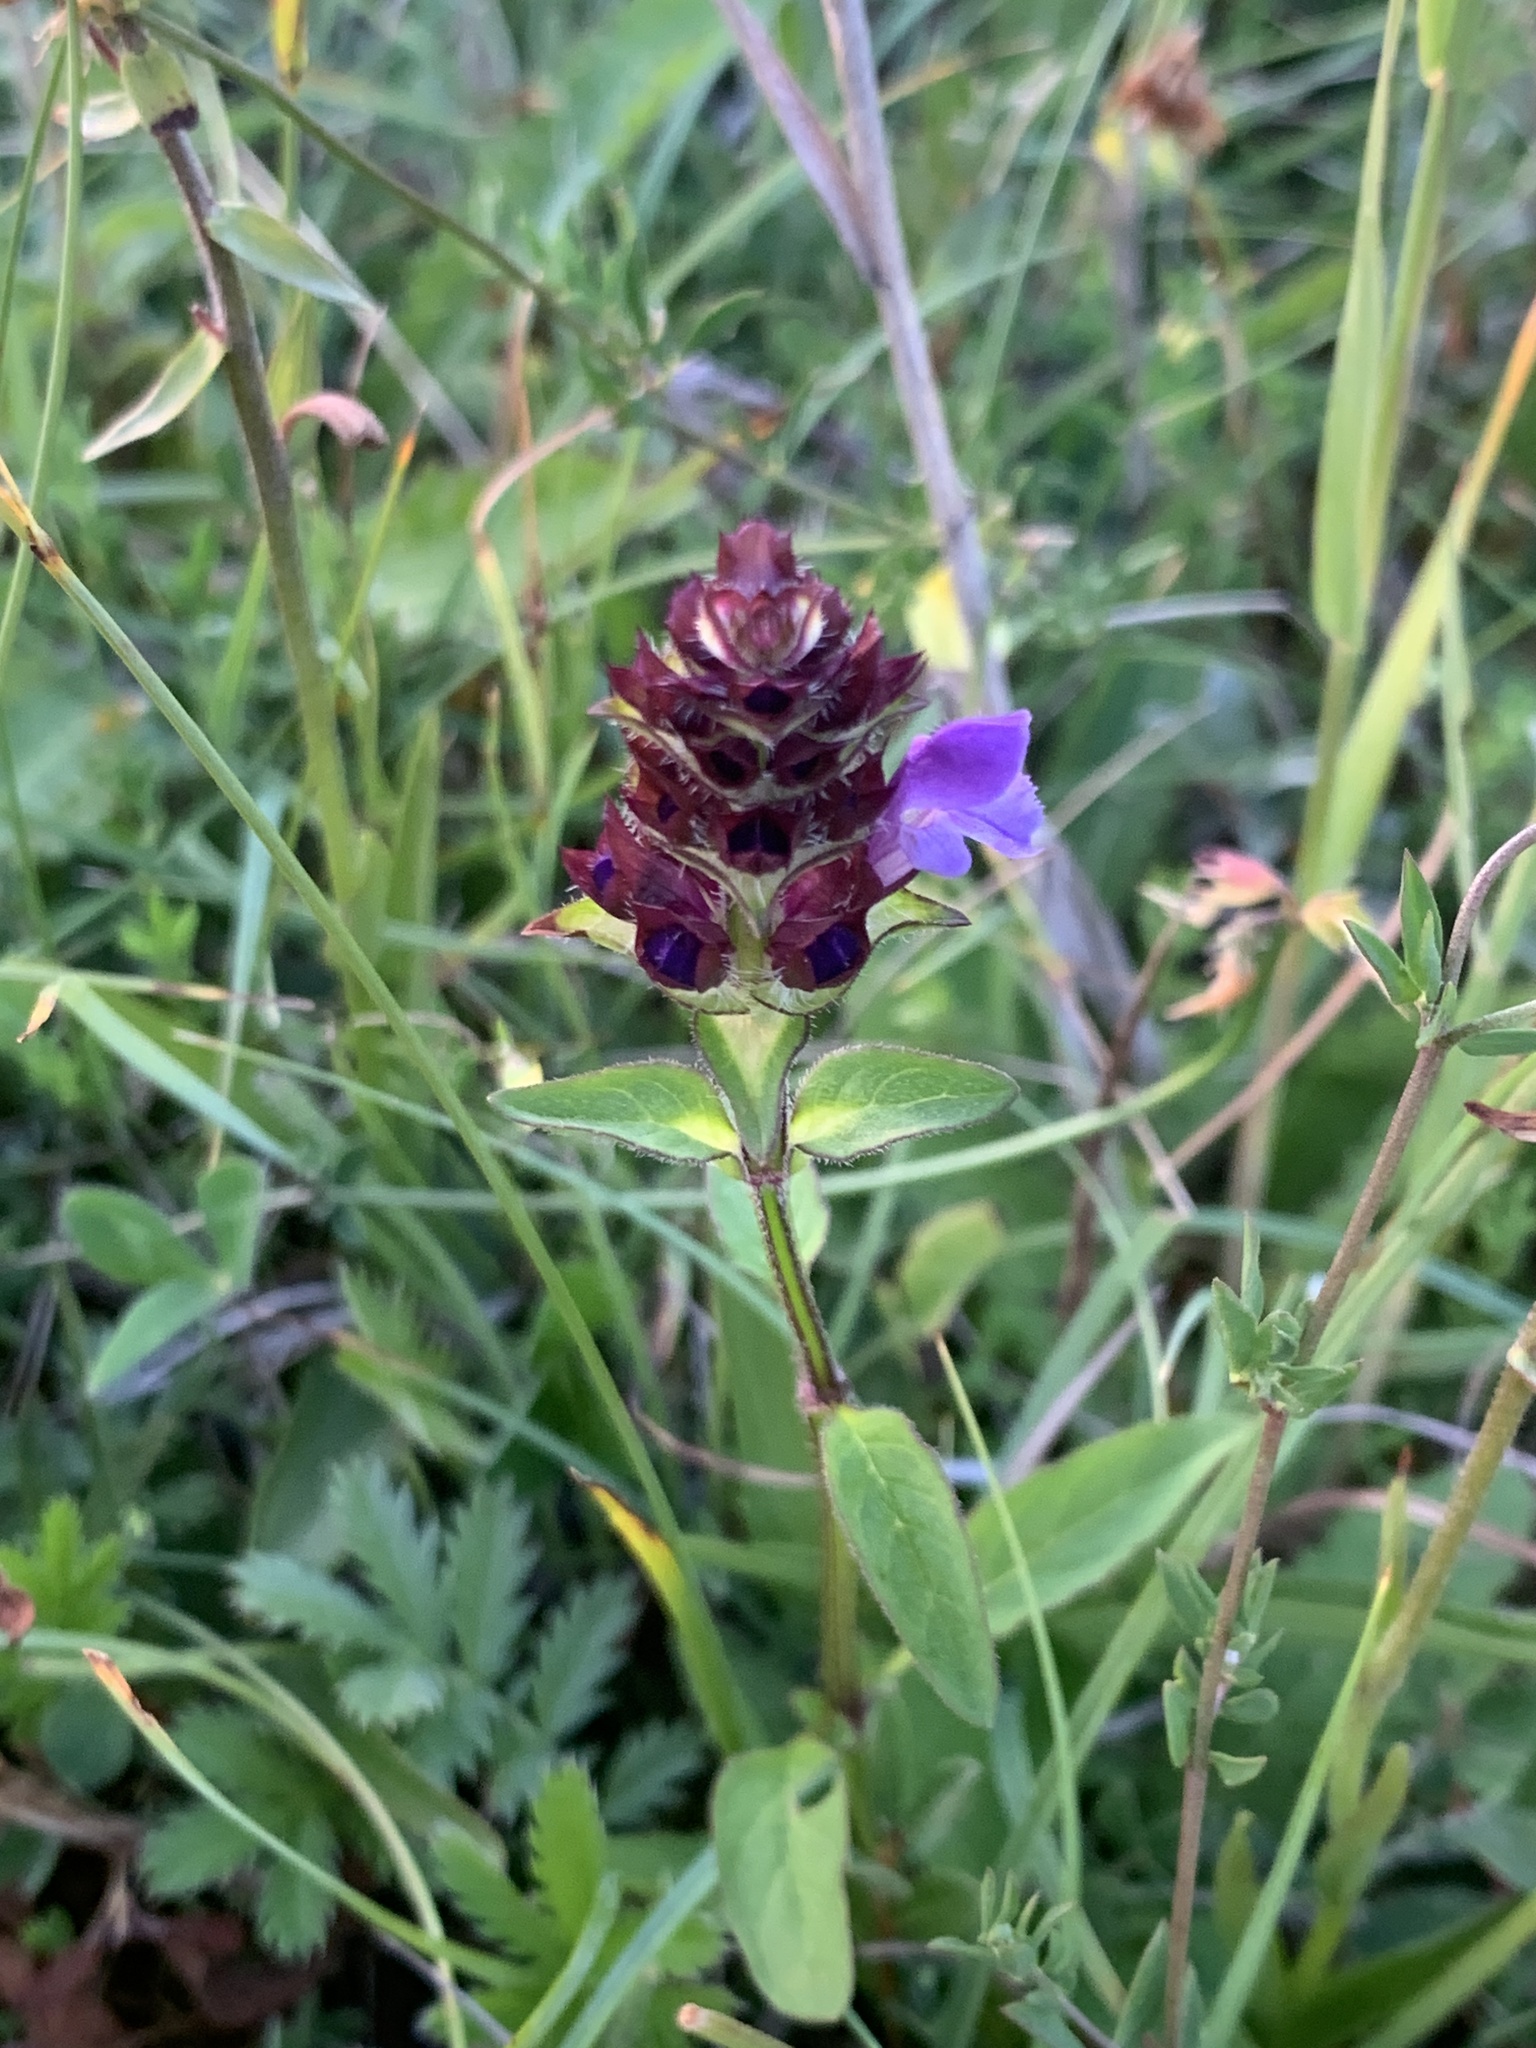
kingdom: Plantae
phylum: Tracheophyta
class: Magnoliopsida
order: Lamiales
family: Lamiaceae
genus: Prunella
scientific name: Prunella vulgaris
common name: Heal-all
